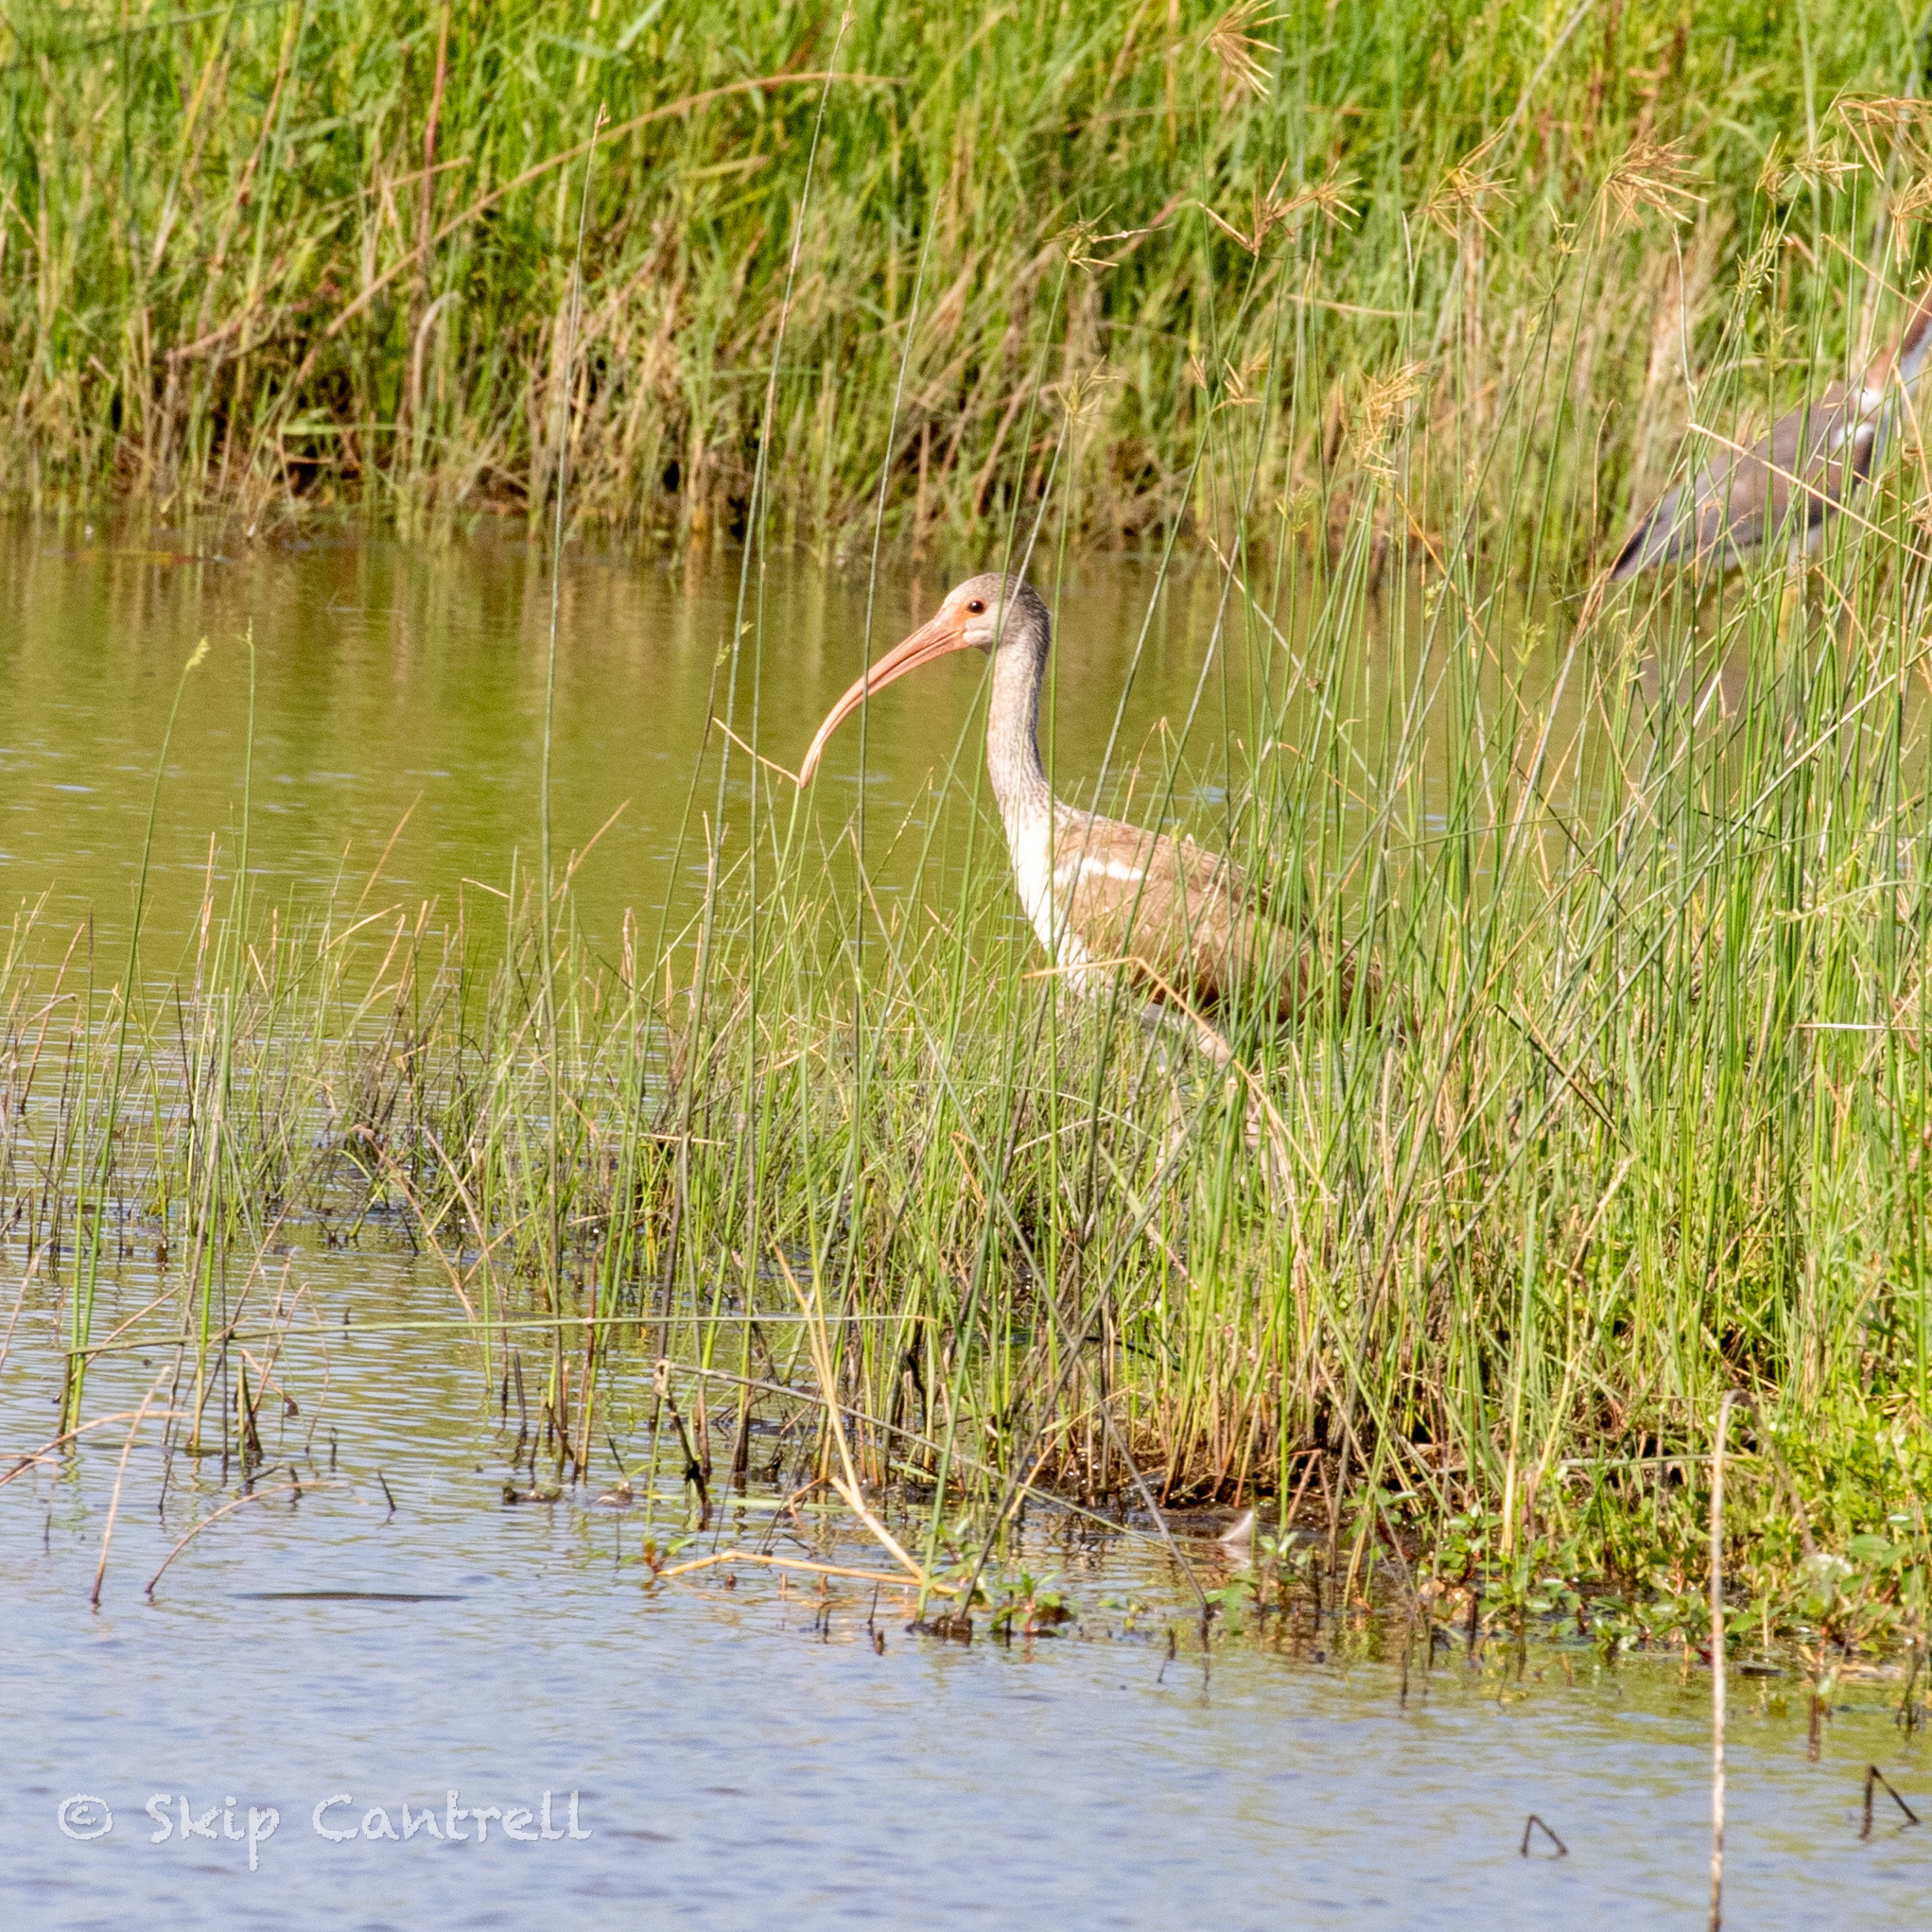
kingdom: Animalia
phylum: Chordata
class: Aves
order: Pelecaniformes
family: Threskiornithidae
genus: Eudocimus
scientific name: Eudocimus albus
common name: White ibis
